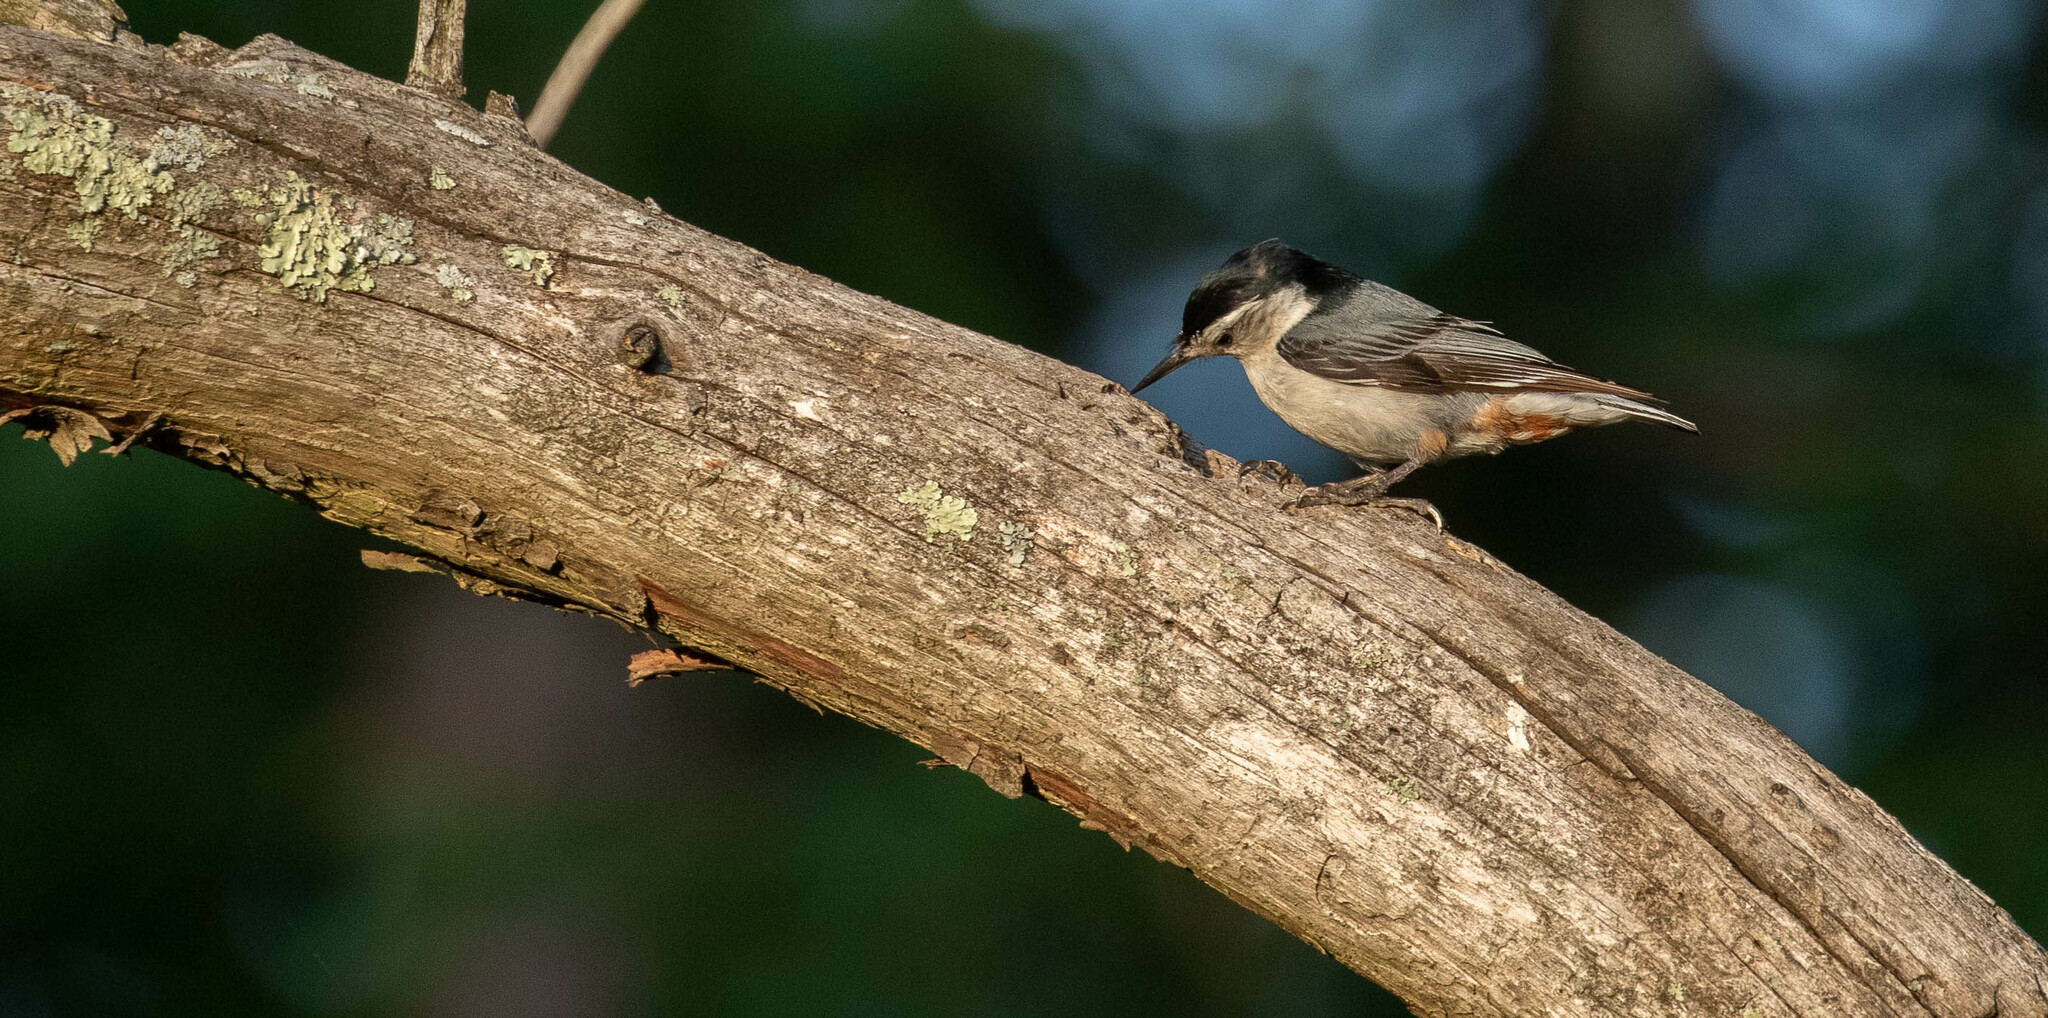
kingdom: Animalia
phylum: Chordata
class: Aves
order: Passeriformes
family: Sittidae
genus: Sitta
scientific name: Sitta carolinensis
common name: White-breasted nuthatch
